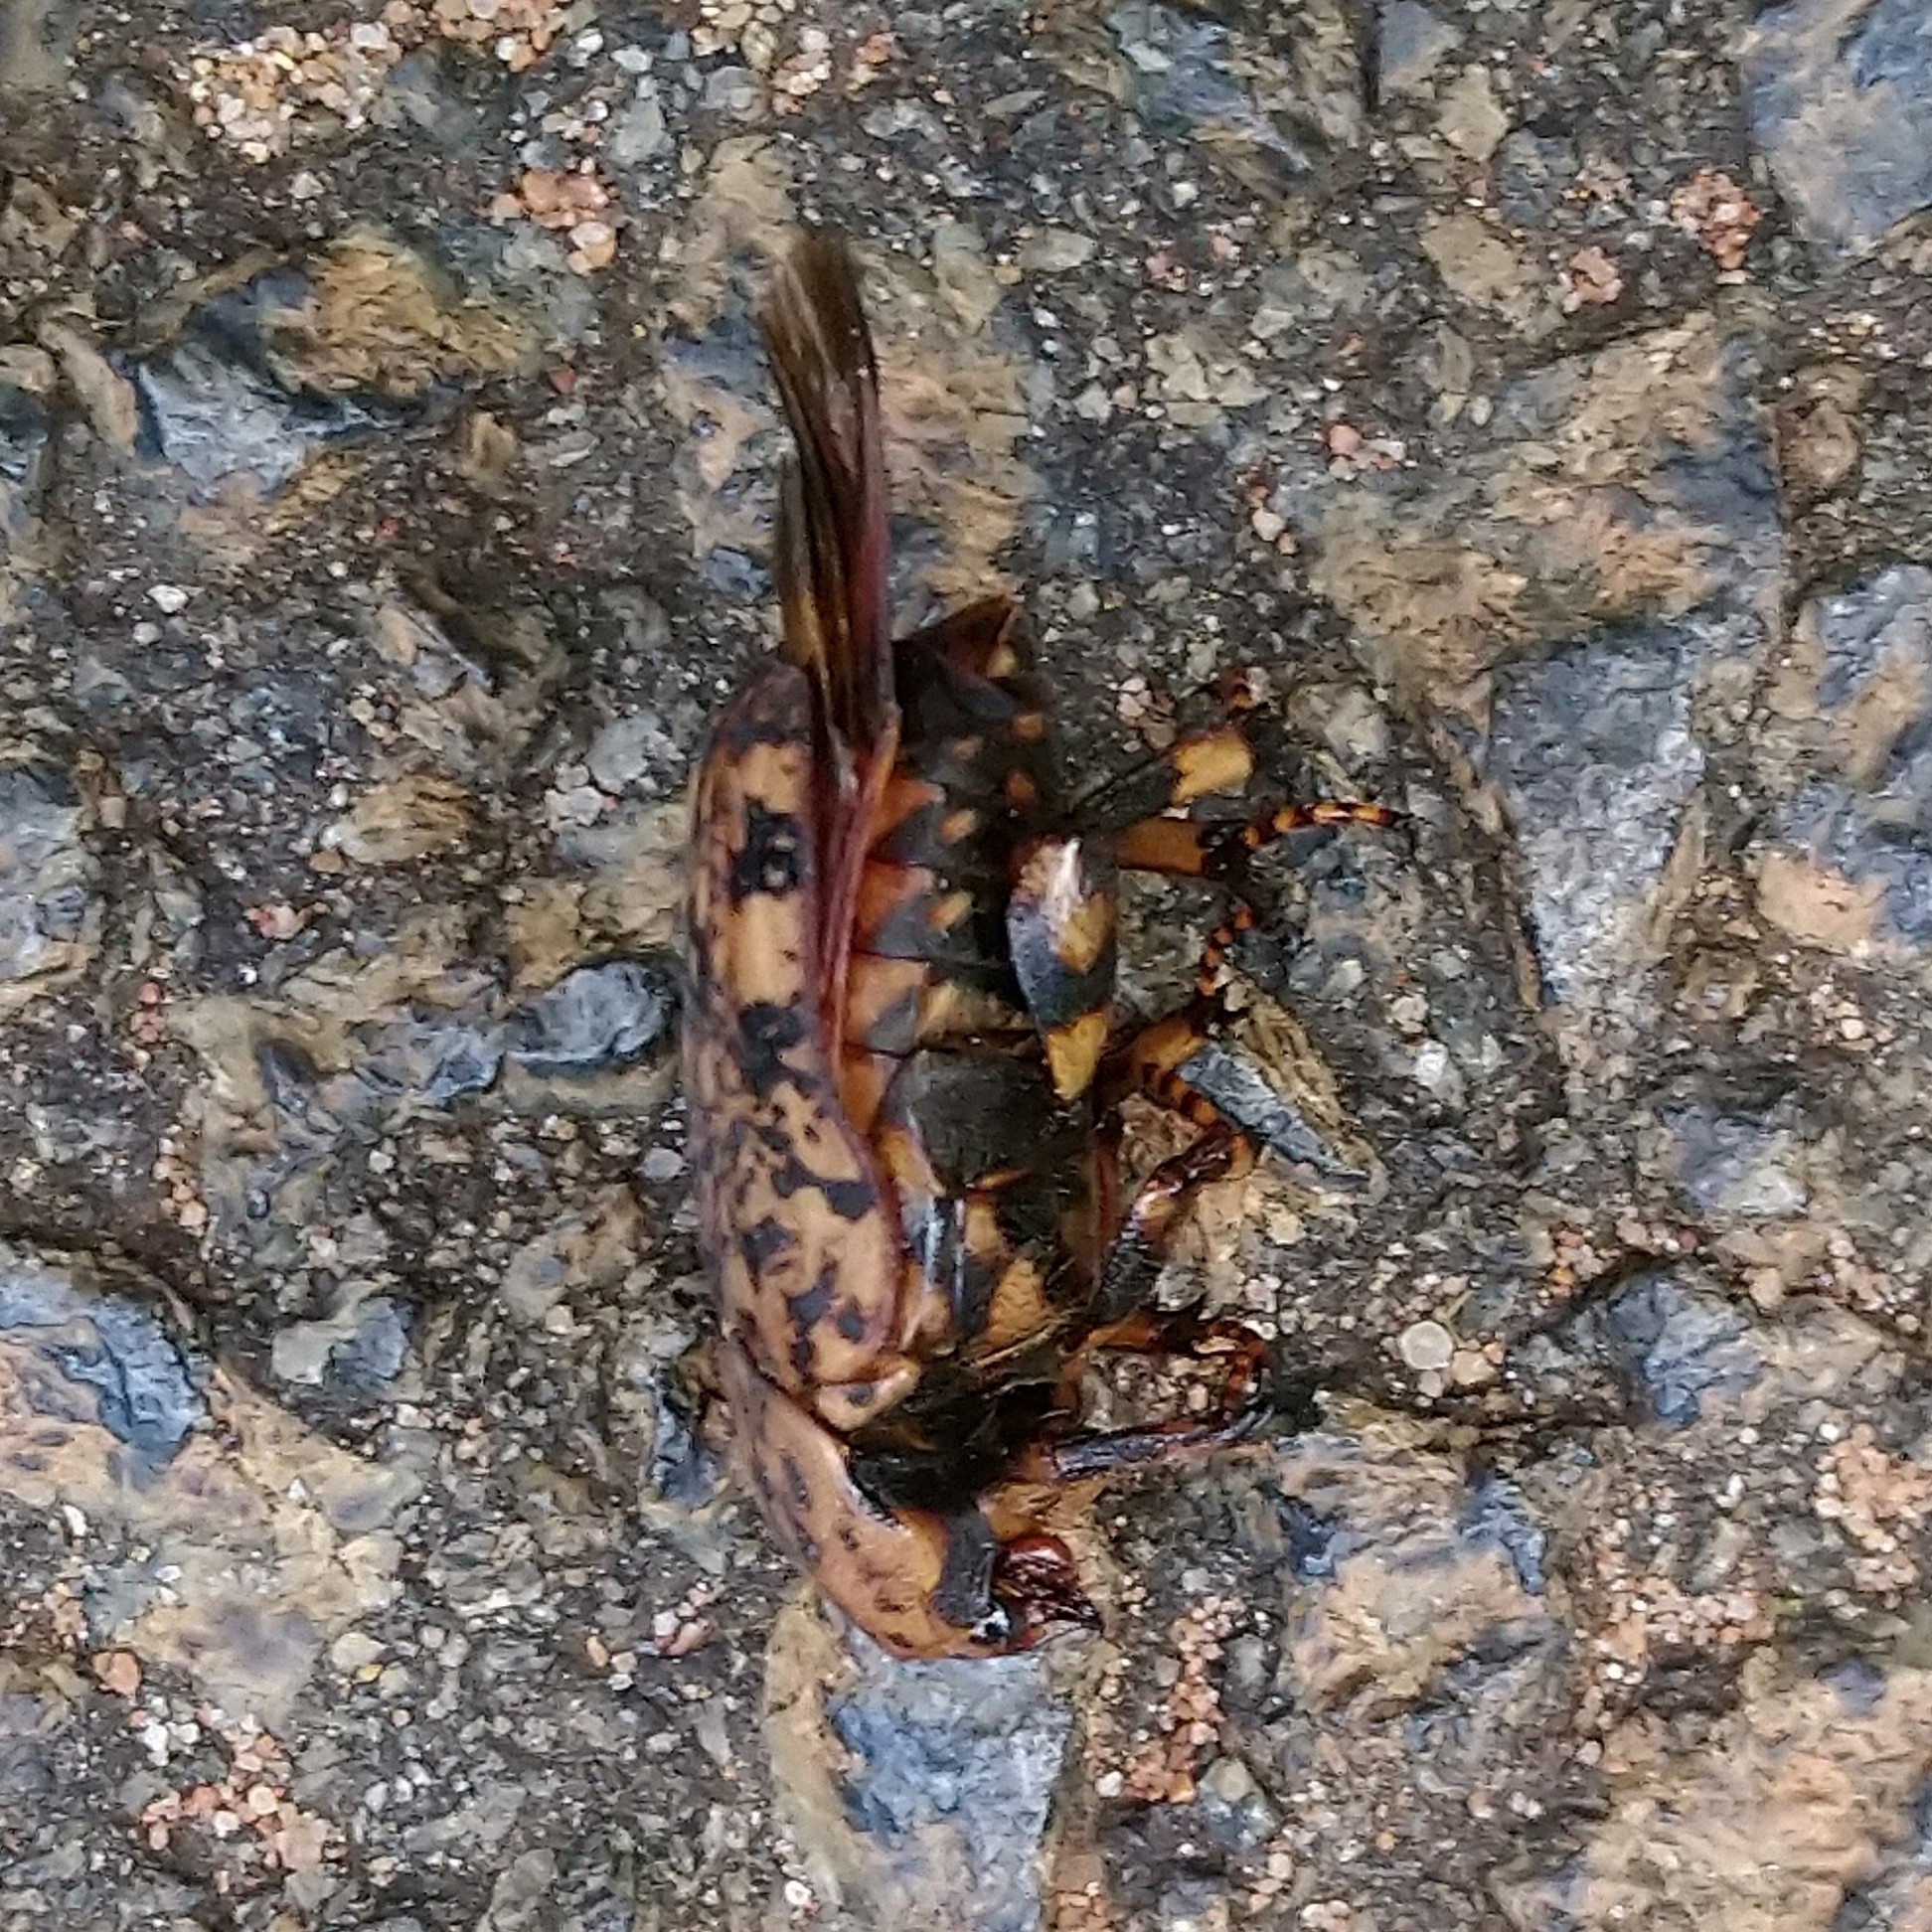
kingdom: Animalia
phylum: Arthropoda
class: Insecta
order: Coleoptera
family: Scarabaeidae
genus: Porphyronota
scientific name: Porphyronota hebraea
